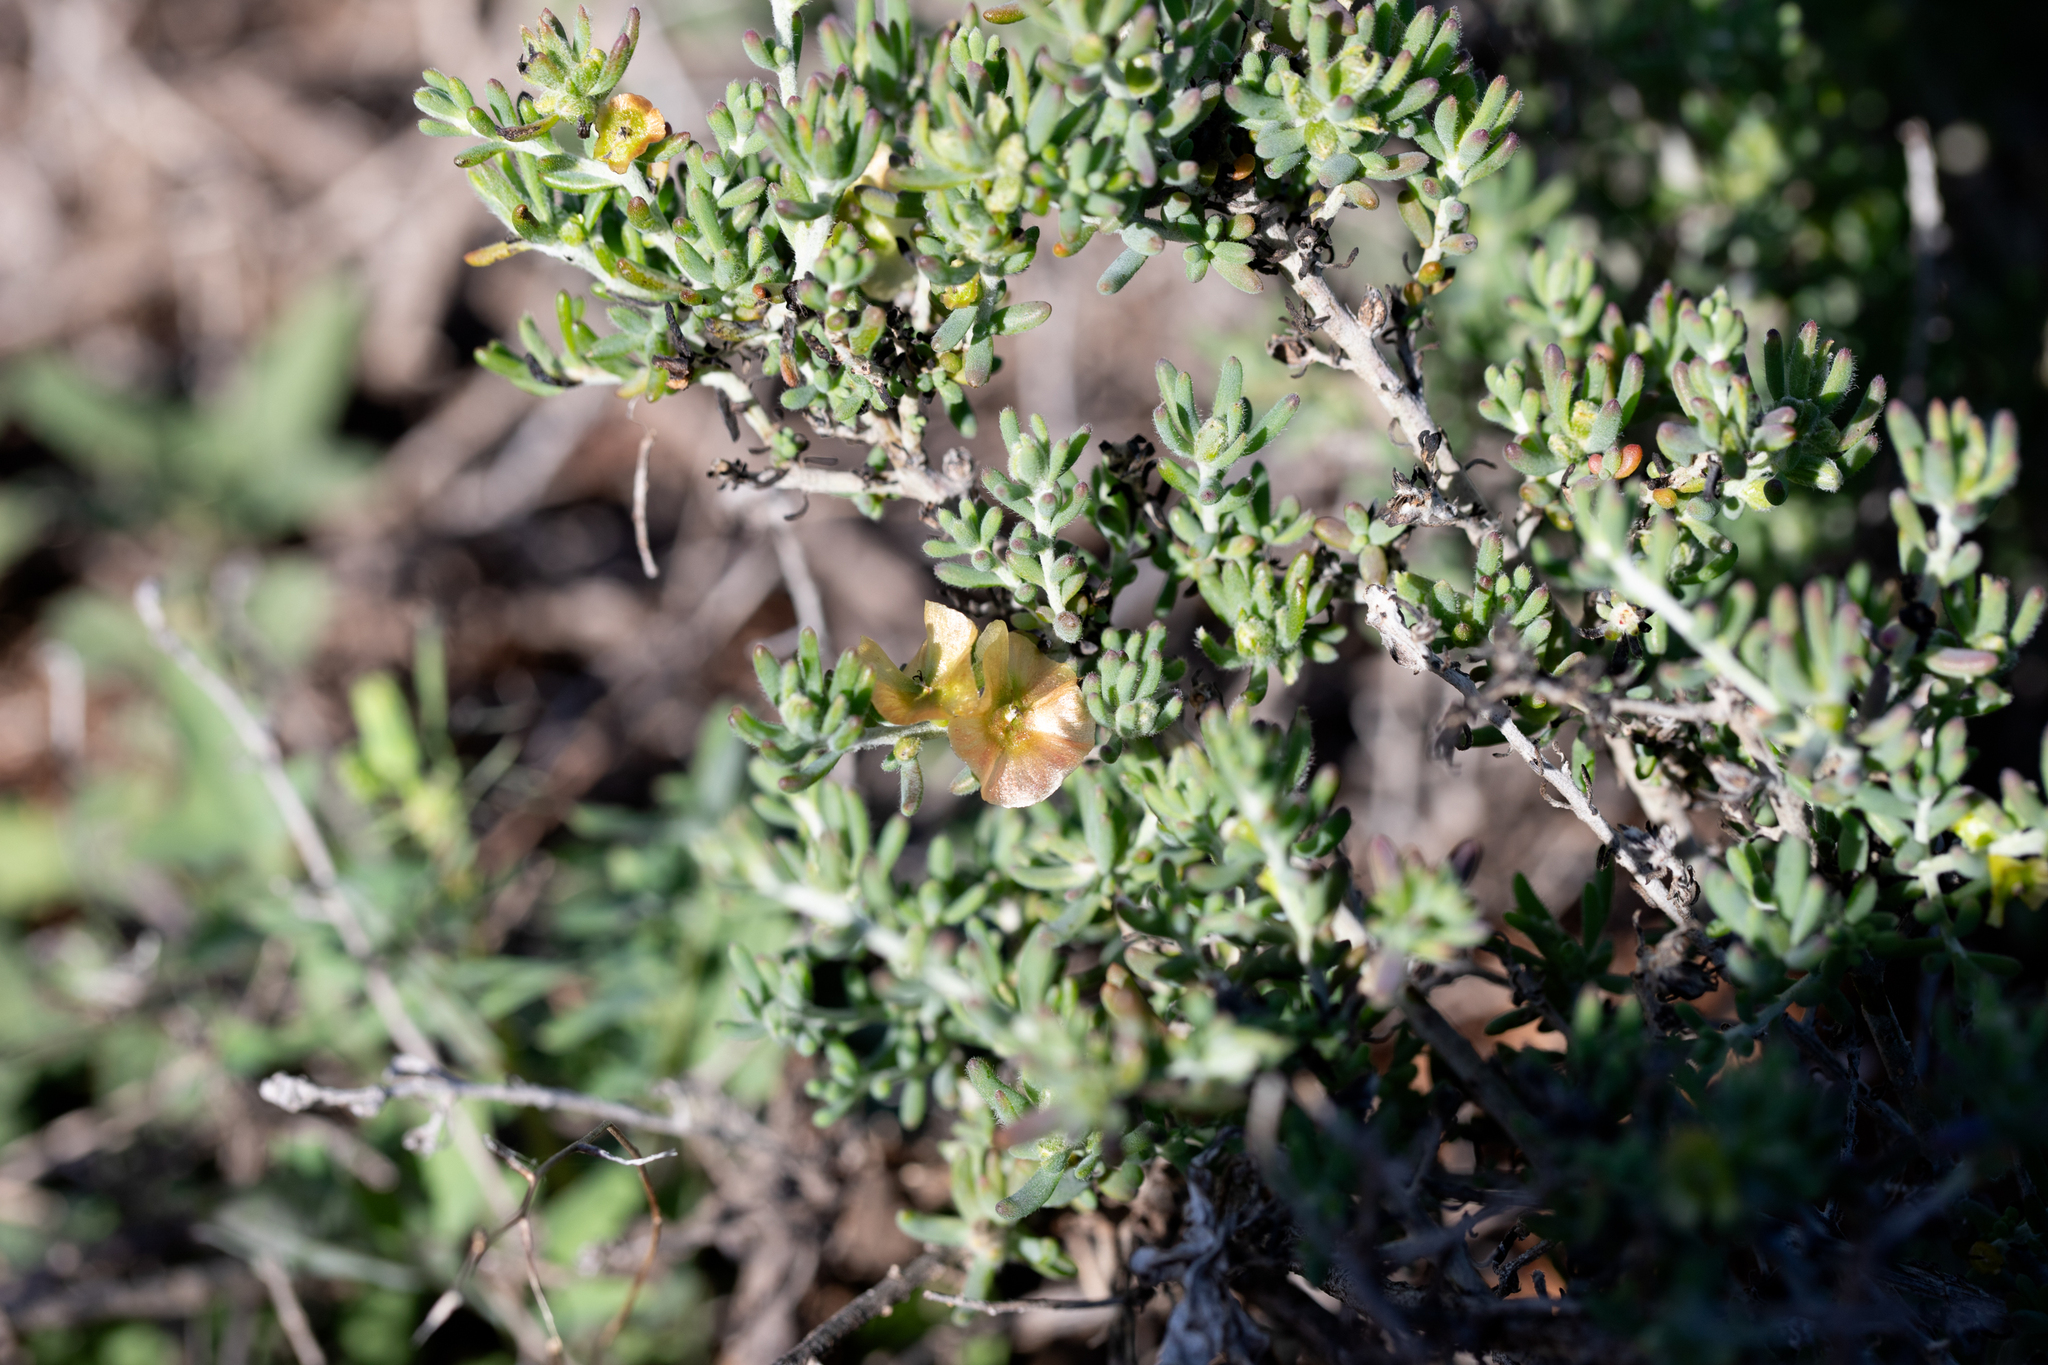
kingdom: Plantae
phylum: Tracheophyta
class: Magnoliopsida
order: Caryophyllales
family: Amaranthaceae
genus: Maireana
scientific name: Maireana georgei
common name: Satiny bluebush
